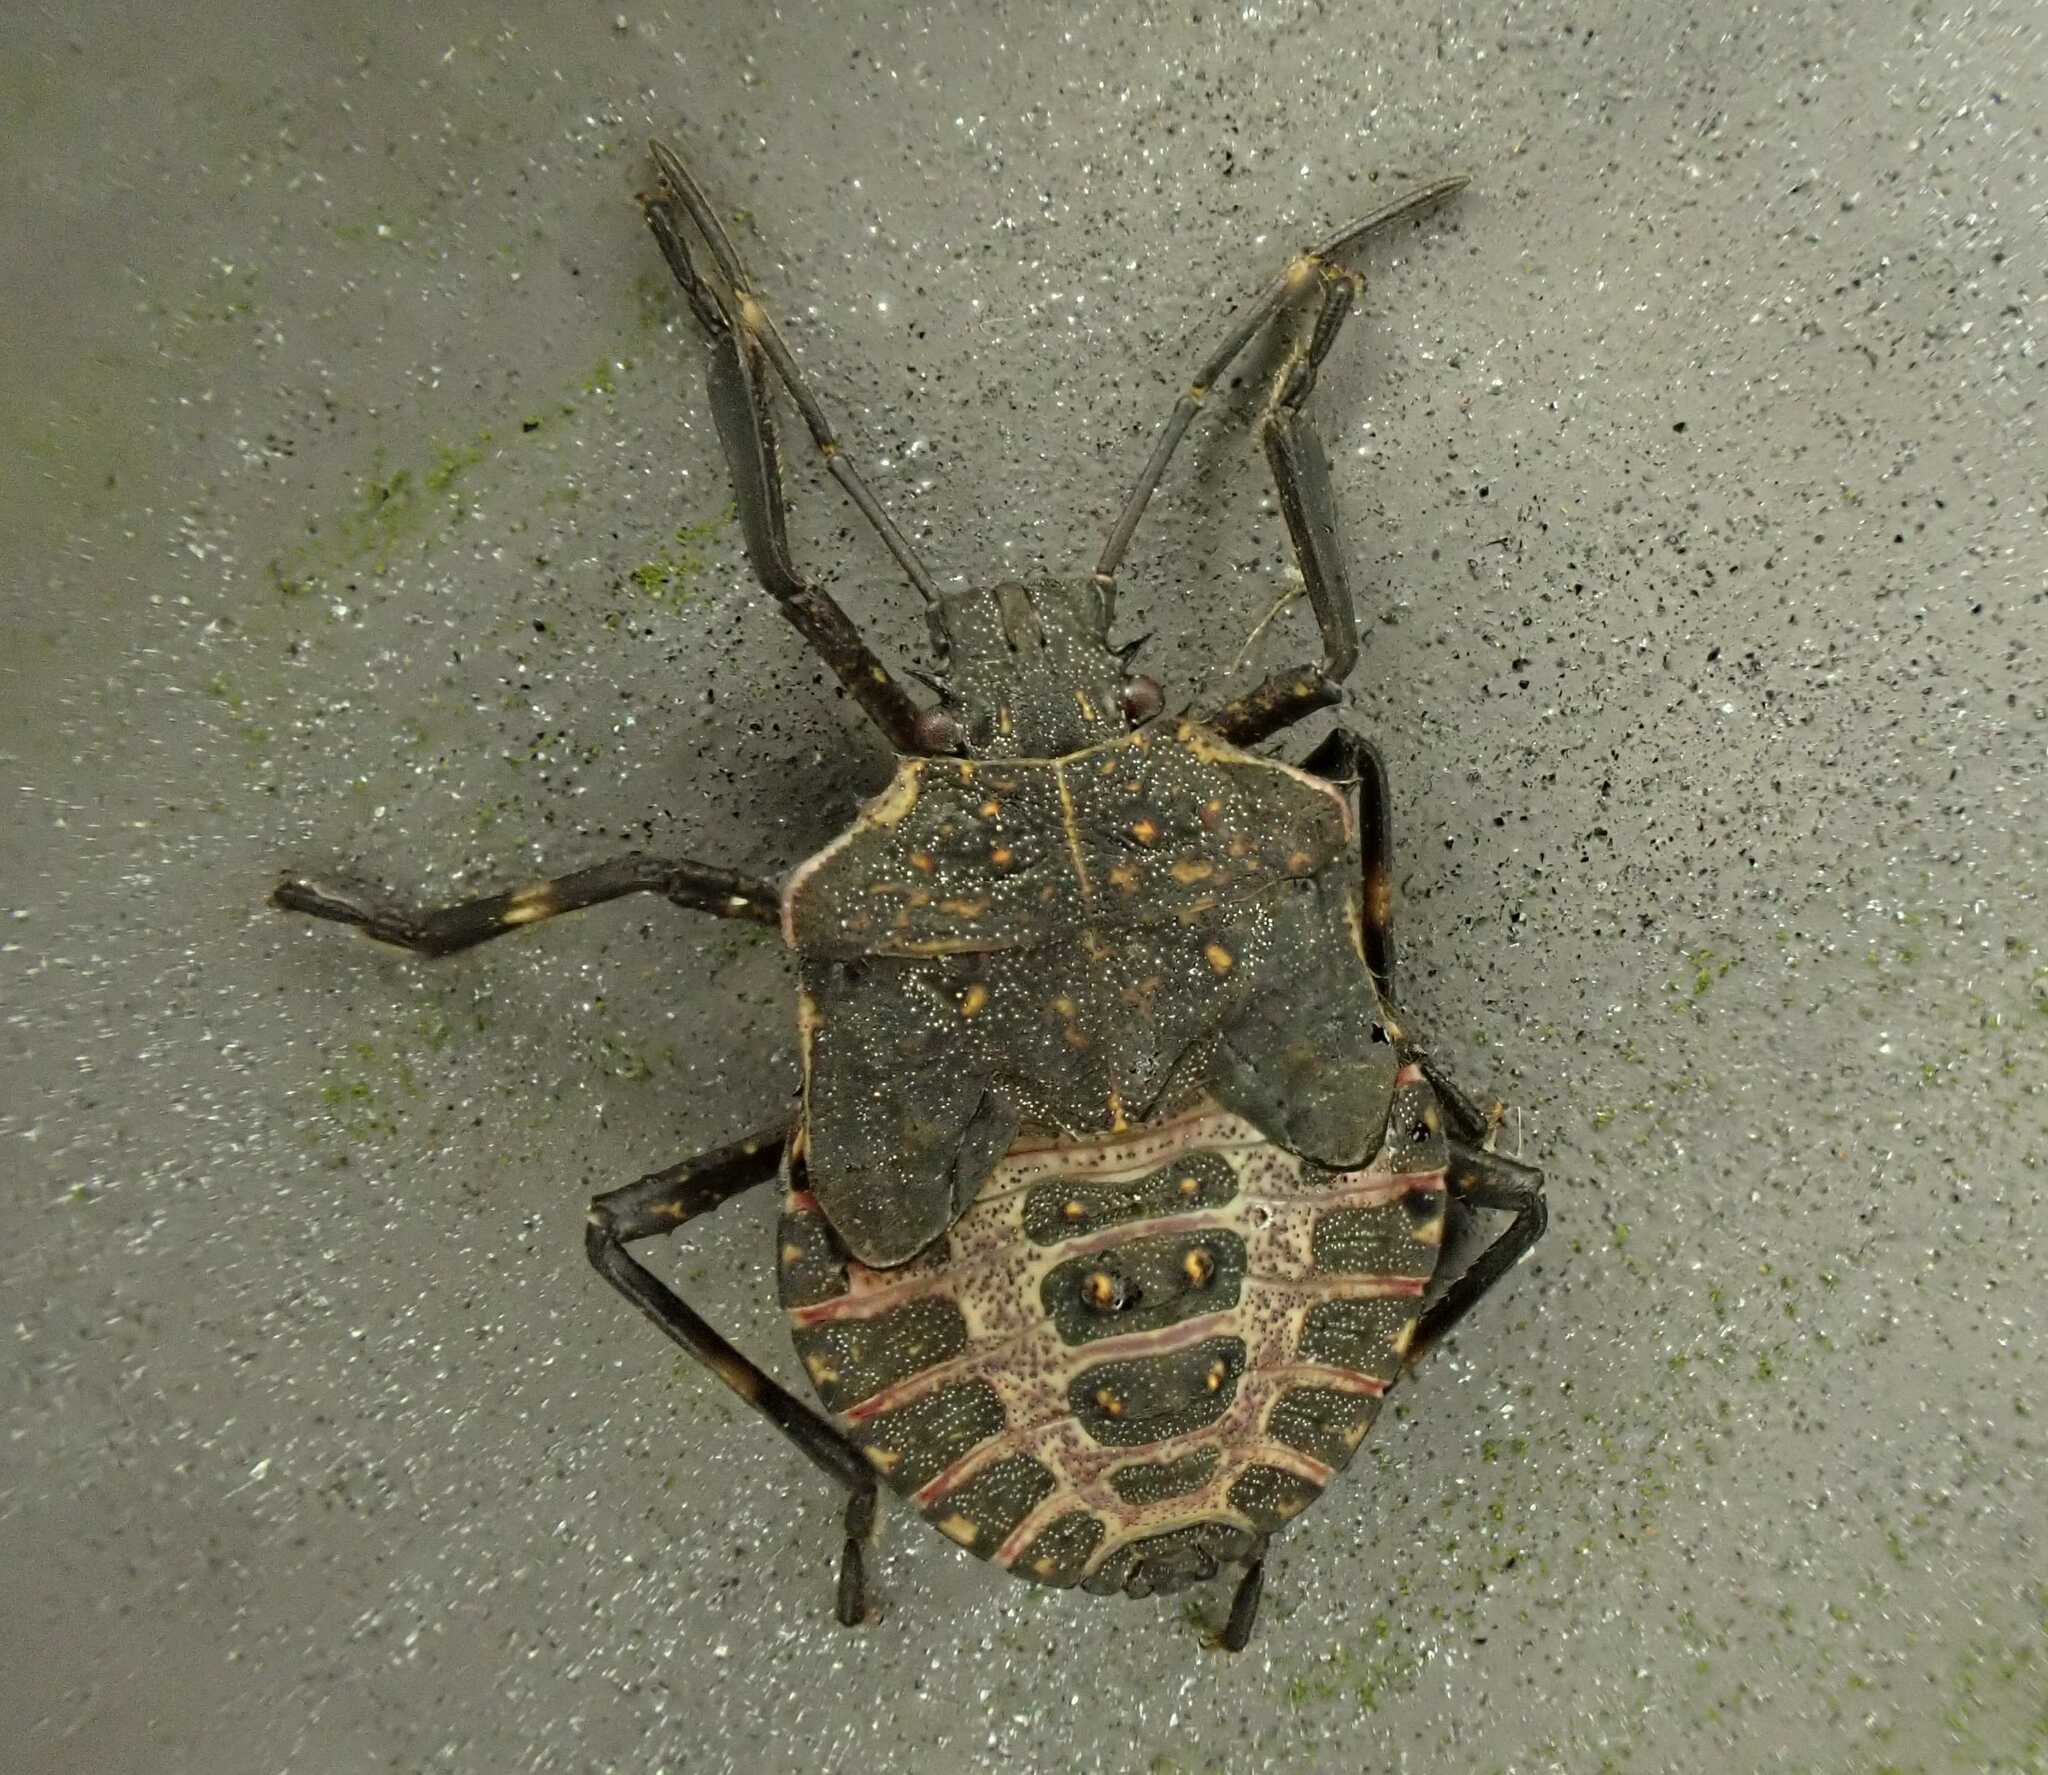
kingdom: Animalia
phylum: Arthropoda
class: Insecta
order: Hemiptera
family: Pentatomidae
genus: Halyomorpha
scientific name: Halyomorpha halys
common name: Brown marmorated stink bug
